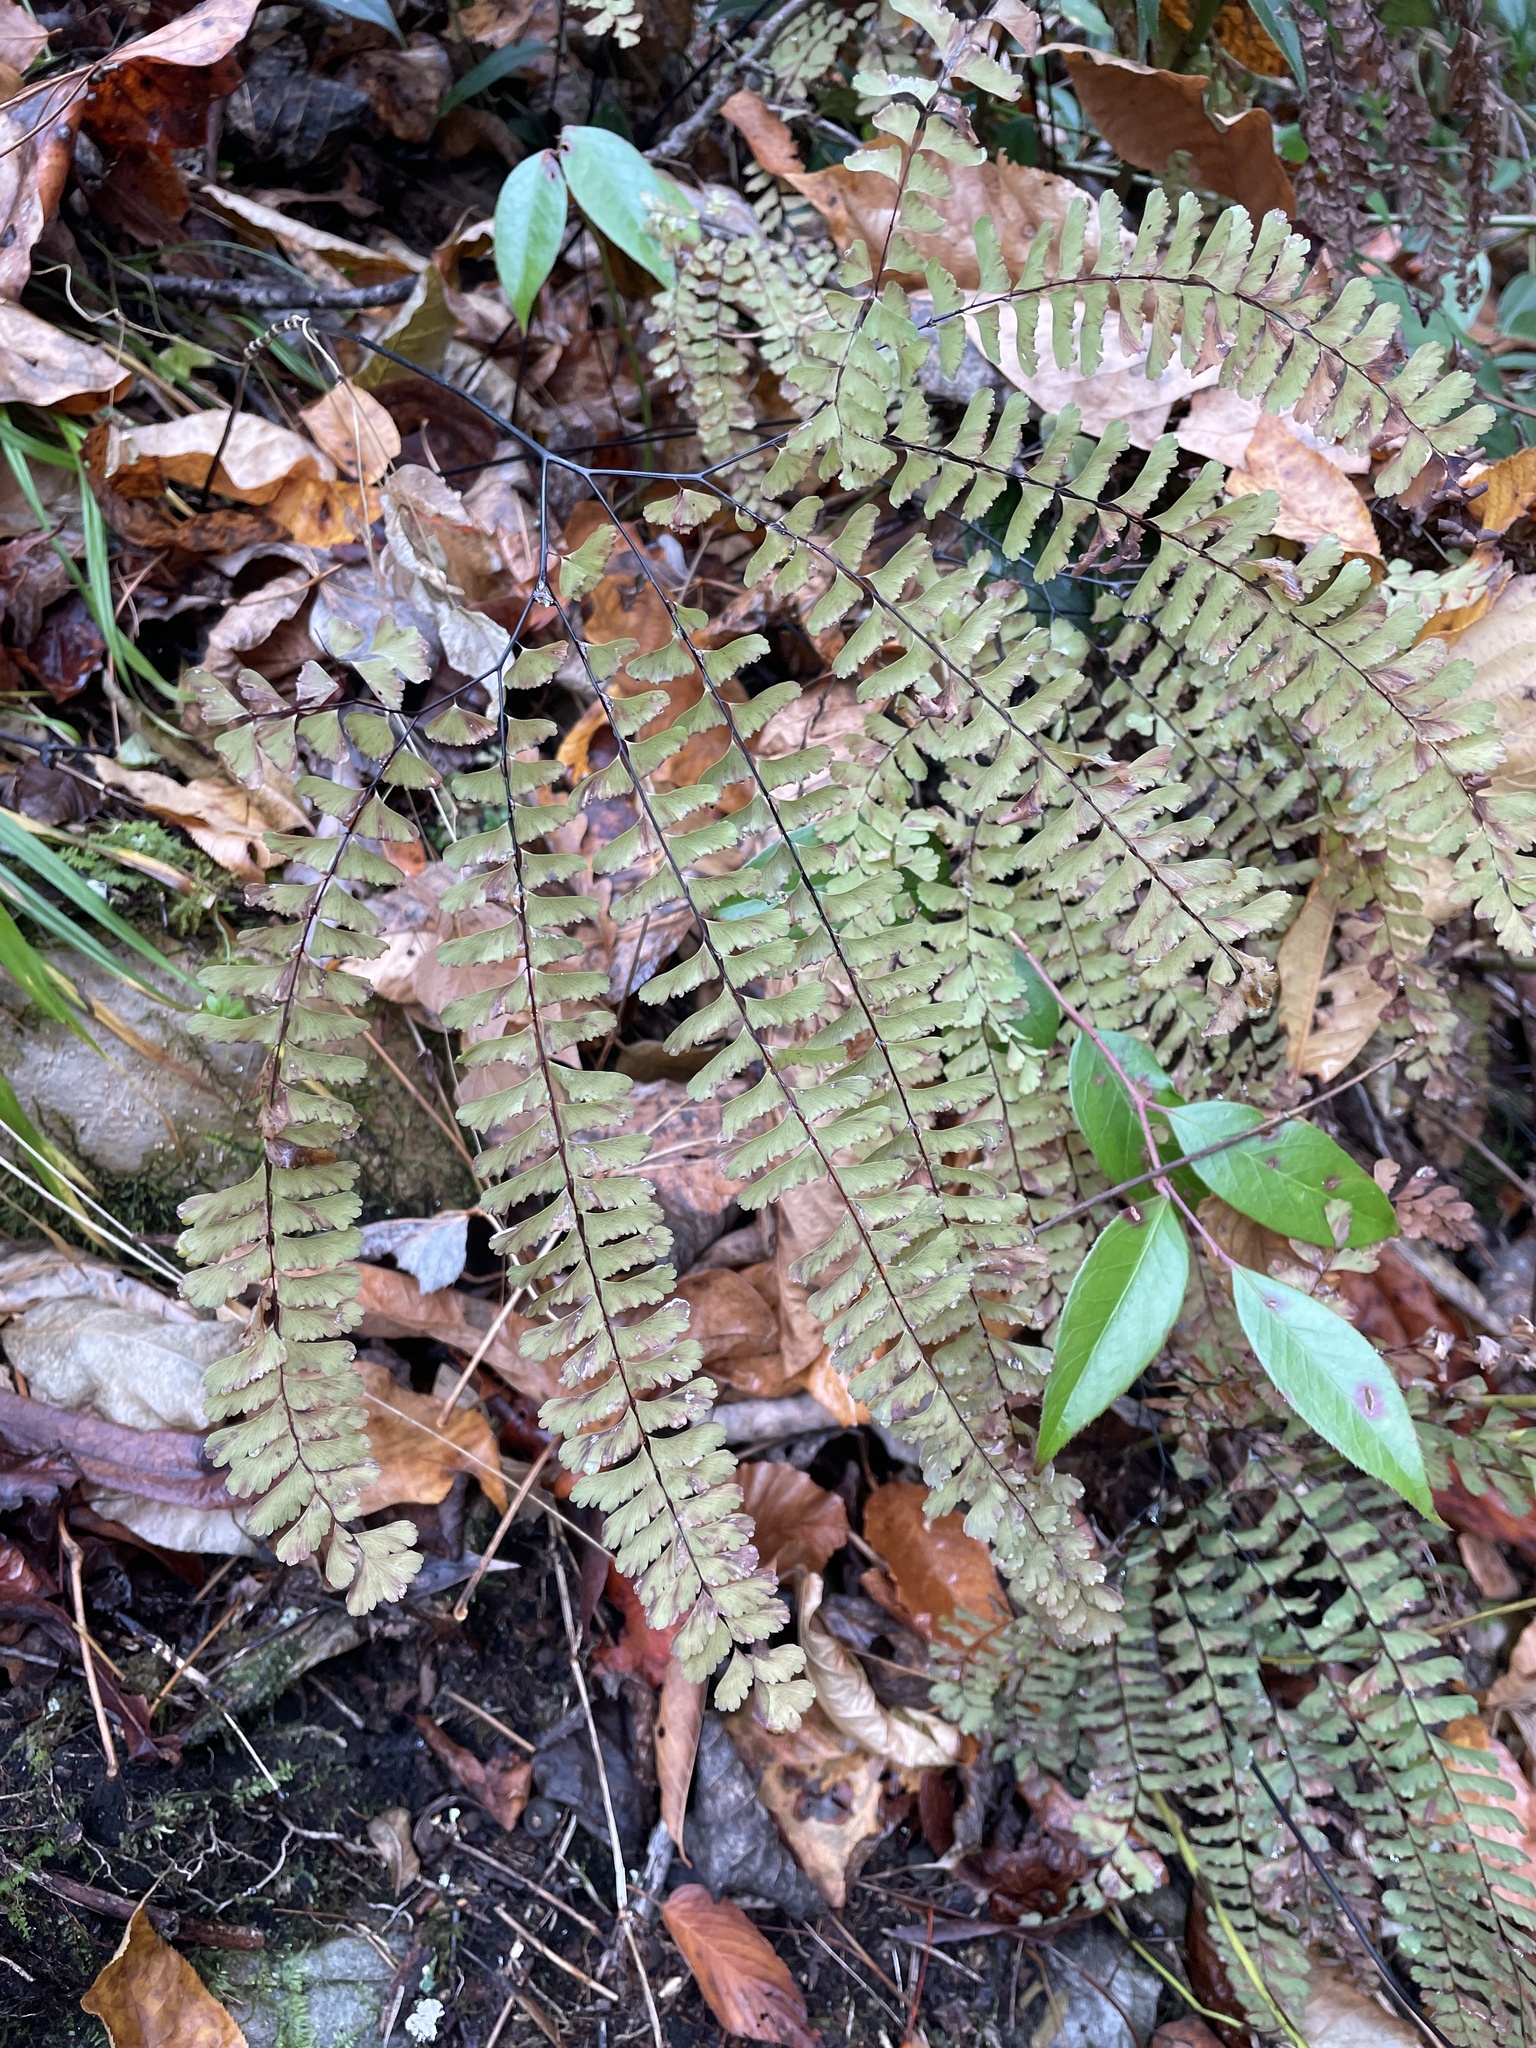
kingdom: Plantae
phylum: Tracheophyta
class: Polypodiopsida
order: Polypodiales
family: Pteridaceae
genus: Adiantum
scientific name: Adiantum pedatum
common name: Five-finger fern
